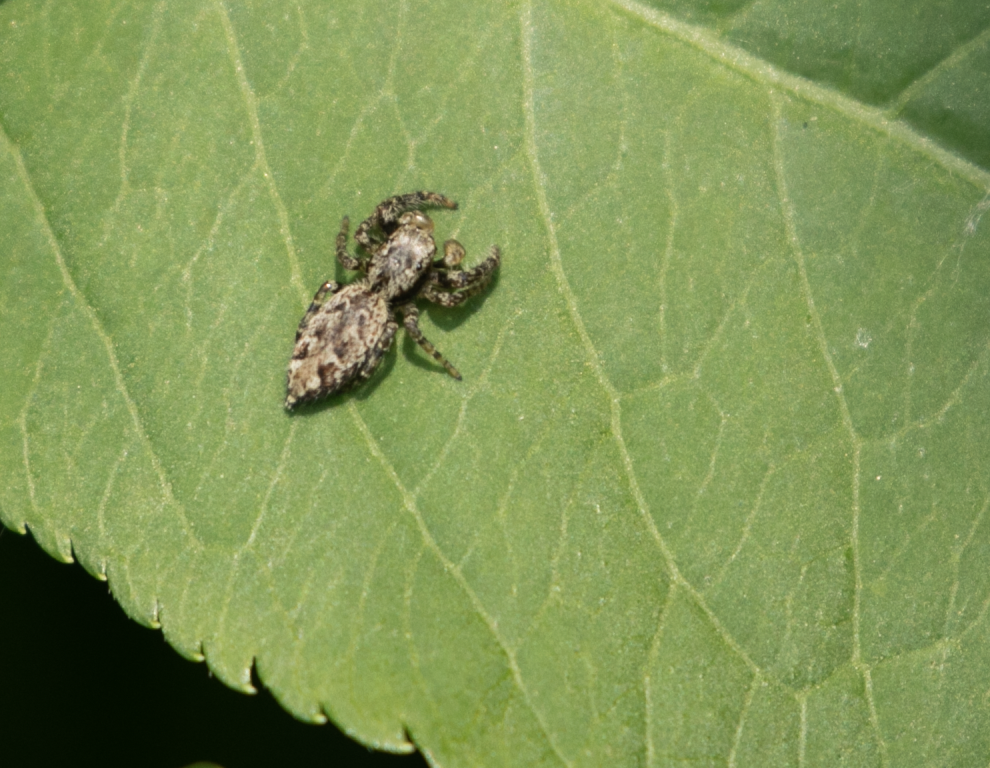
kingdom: Animalia
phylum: Arthropoda
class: Arachnida
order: Araneae
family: Salticidae
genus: Marpissa
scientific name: Marpissa muscosa
